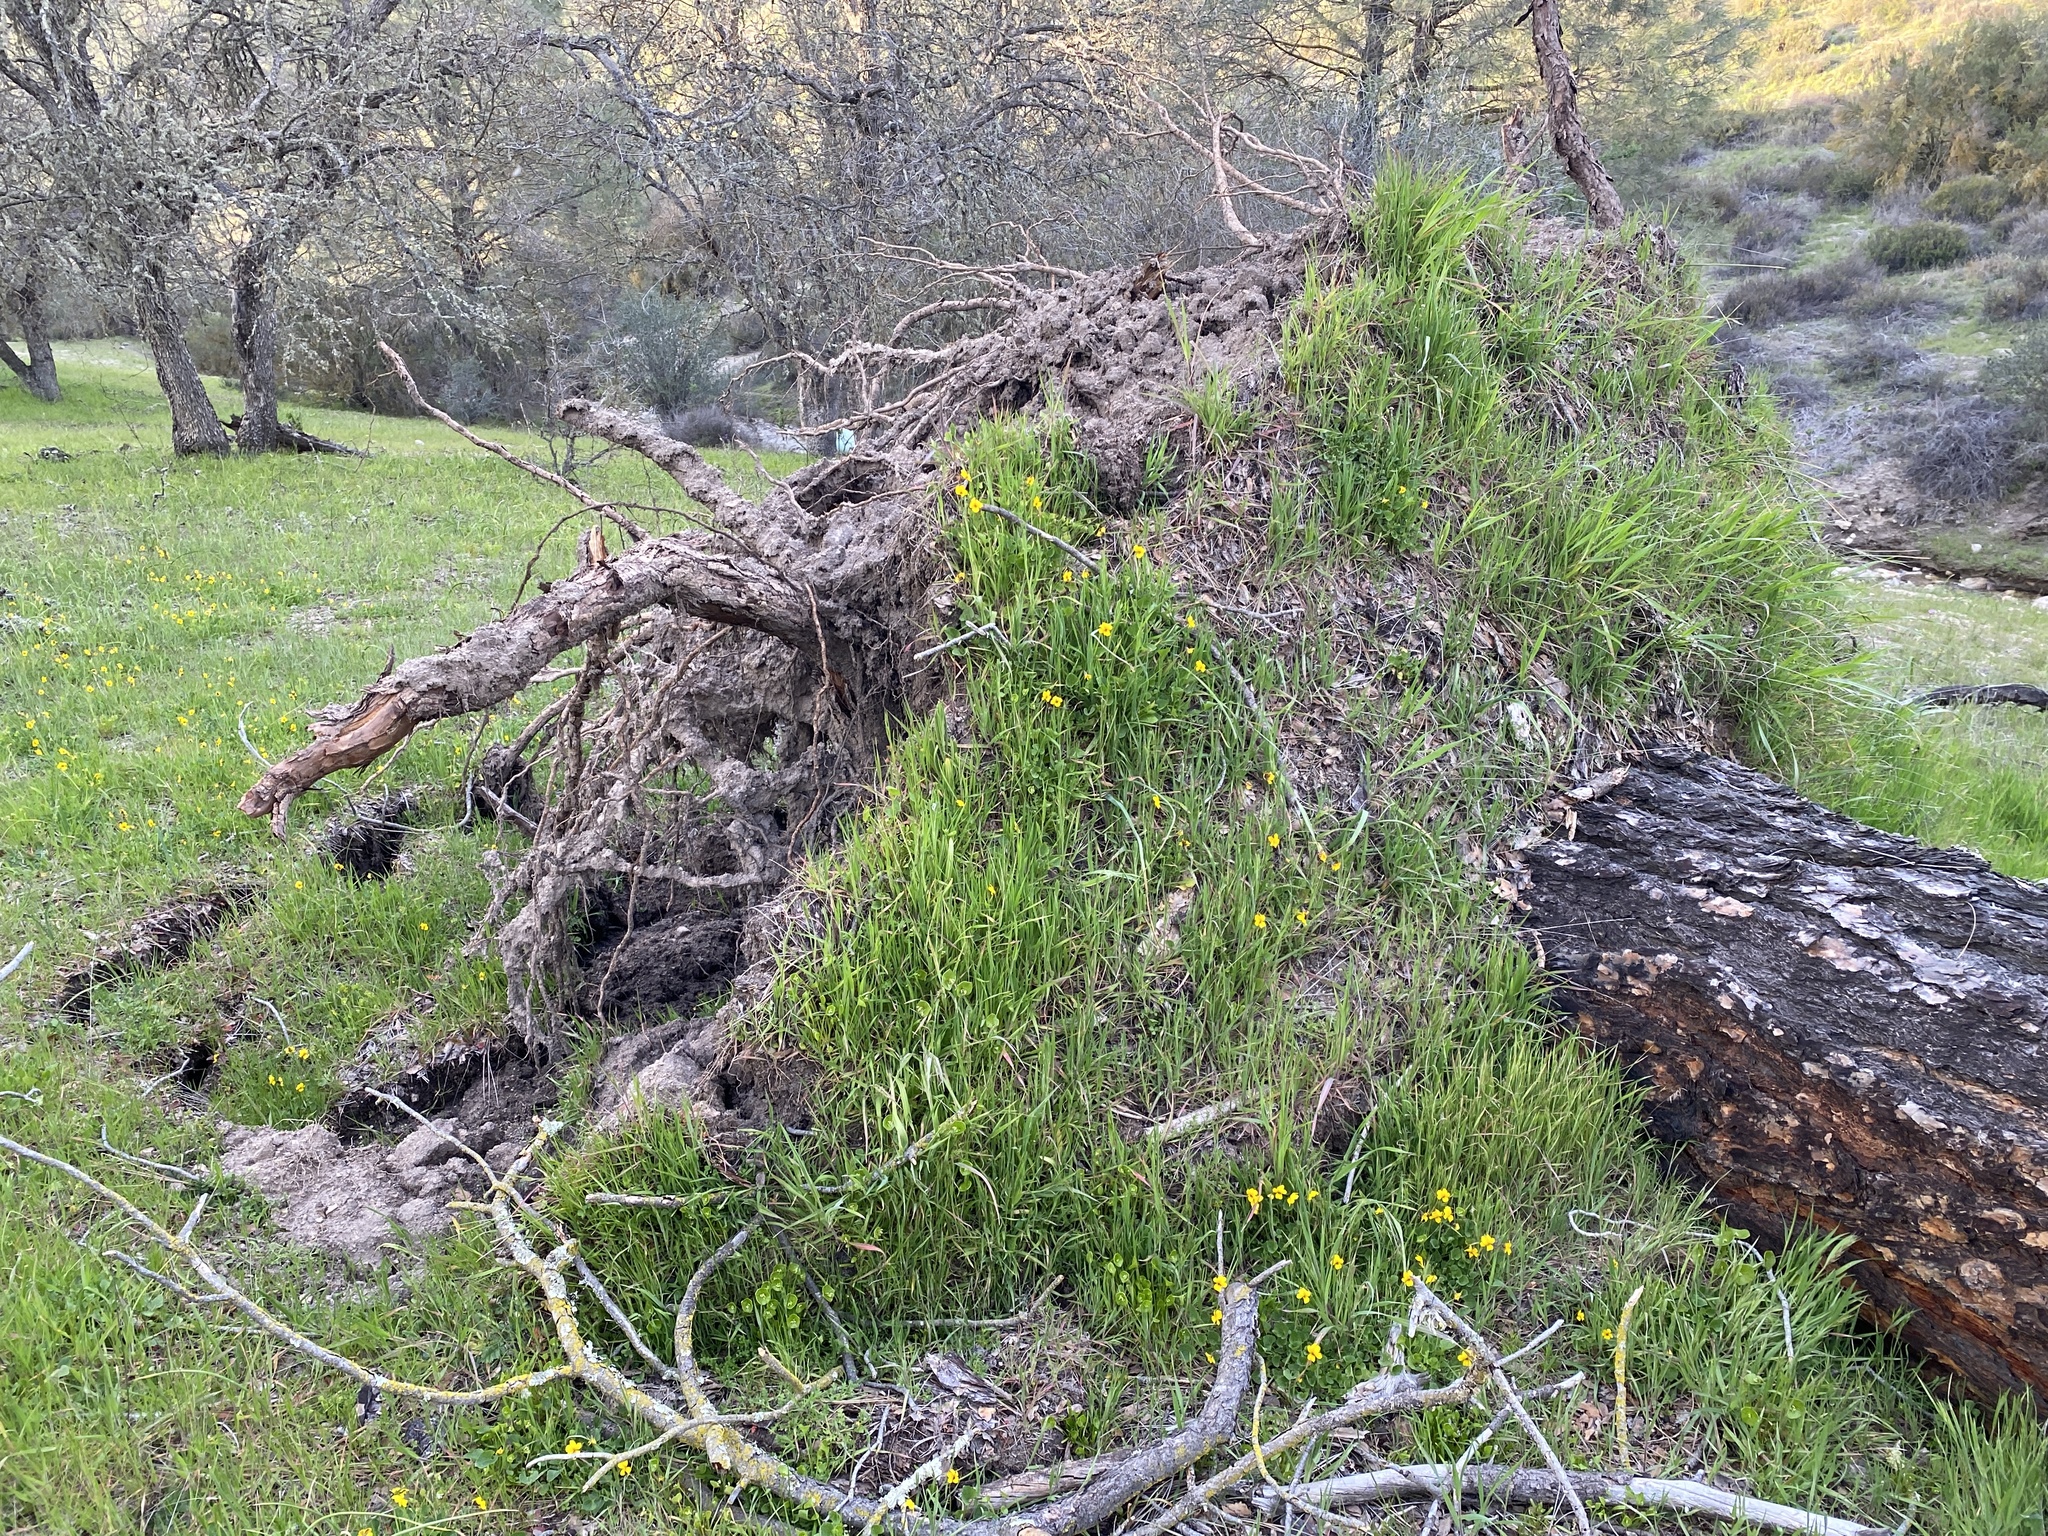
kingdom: Plantae
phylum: Tracheophyta
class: Pinopsida
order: Pinales
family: Pinaceae
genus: Pinus
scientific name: Pinus sabiniana
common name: Bull pine
